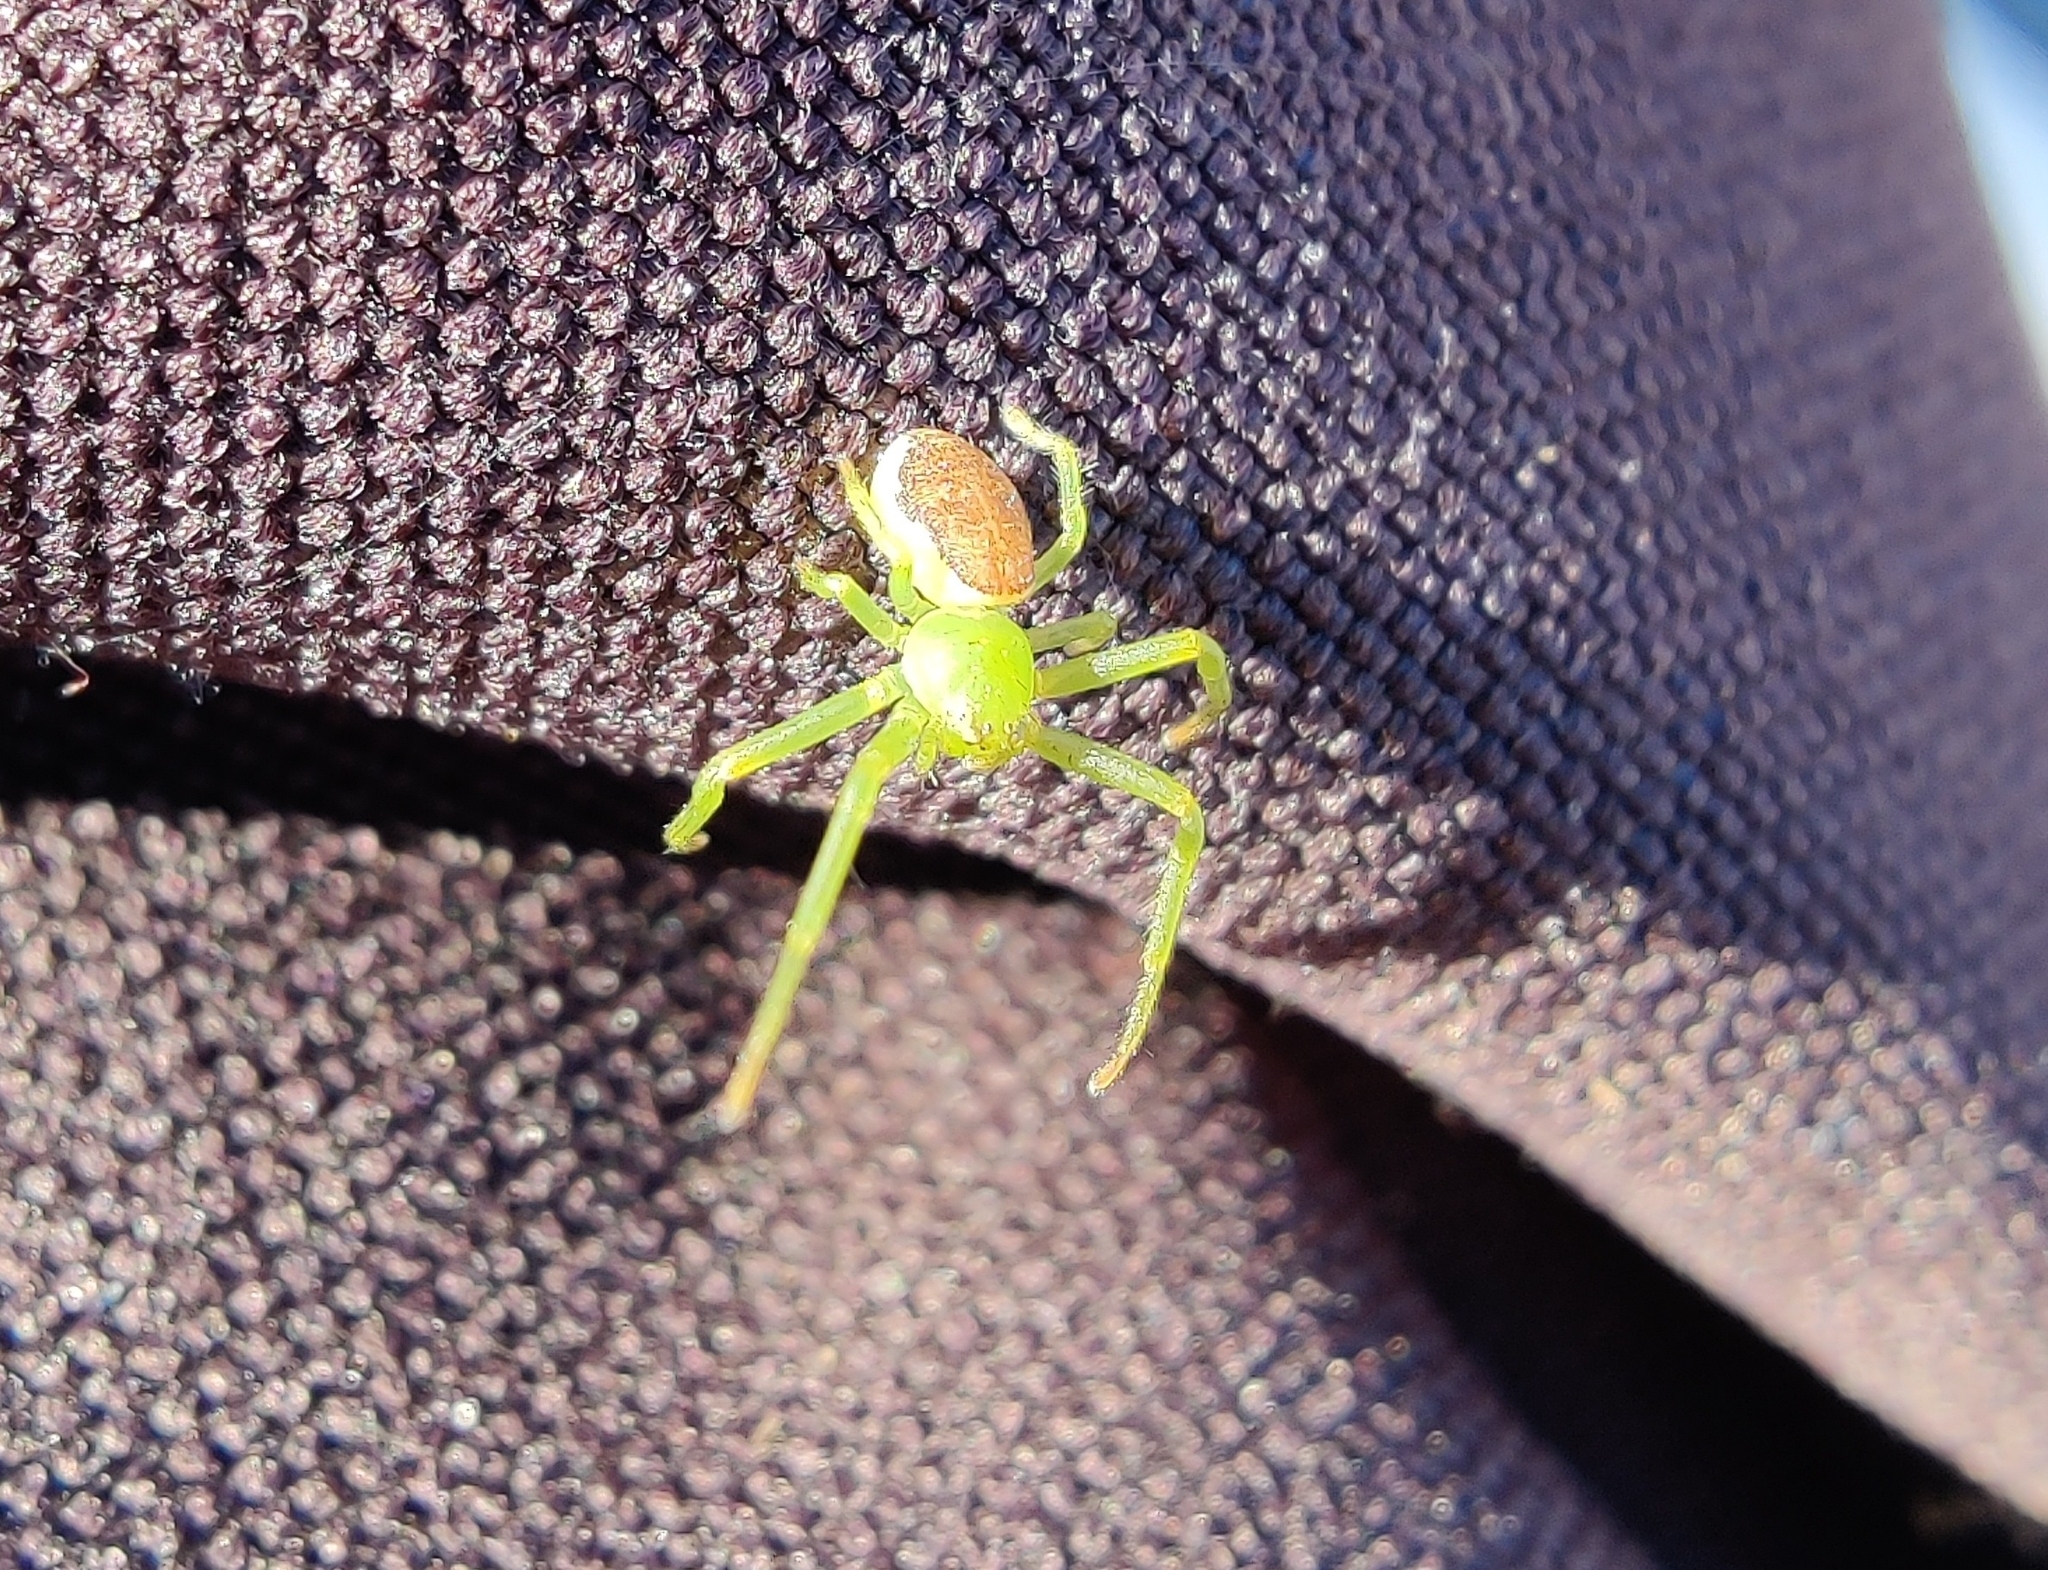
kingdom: Animalia
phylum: Arthropoda
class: Arachnida
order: Araneae
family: Thomisidae
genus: Diaea
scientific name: Diaea dorsata
